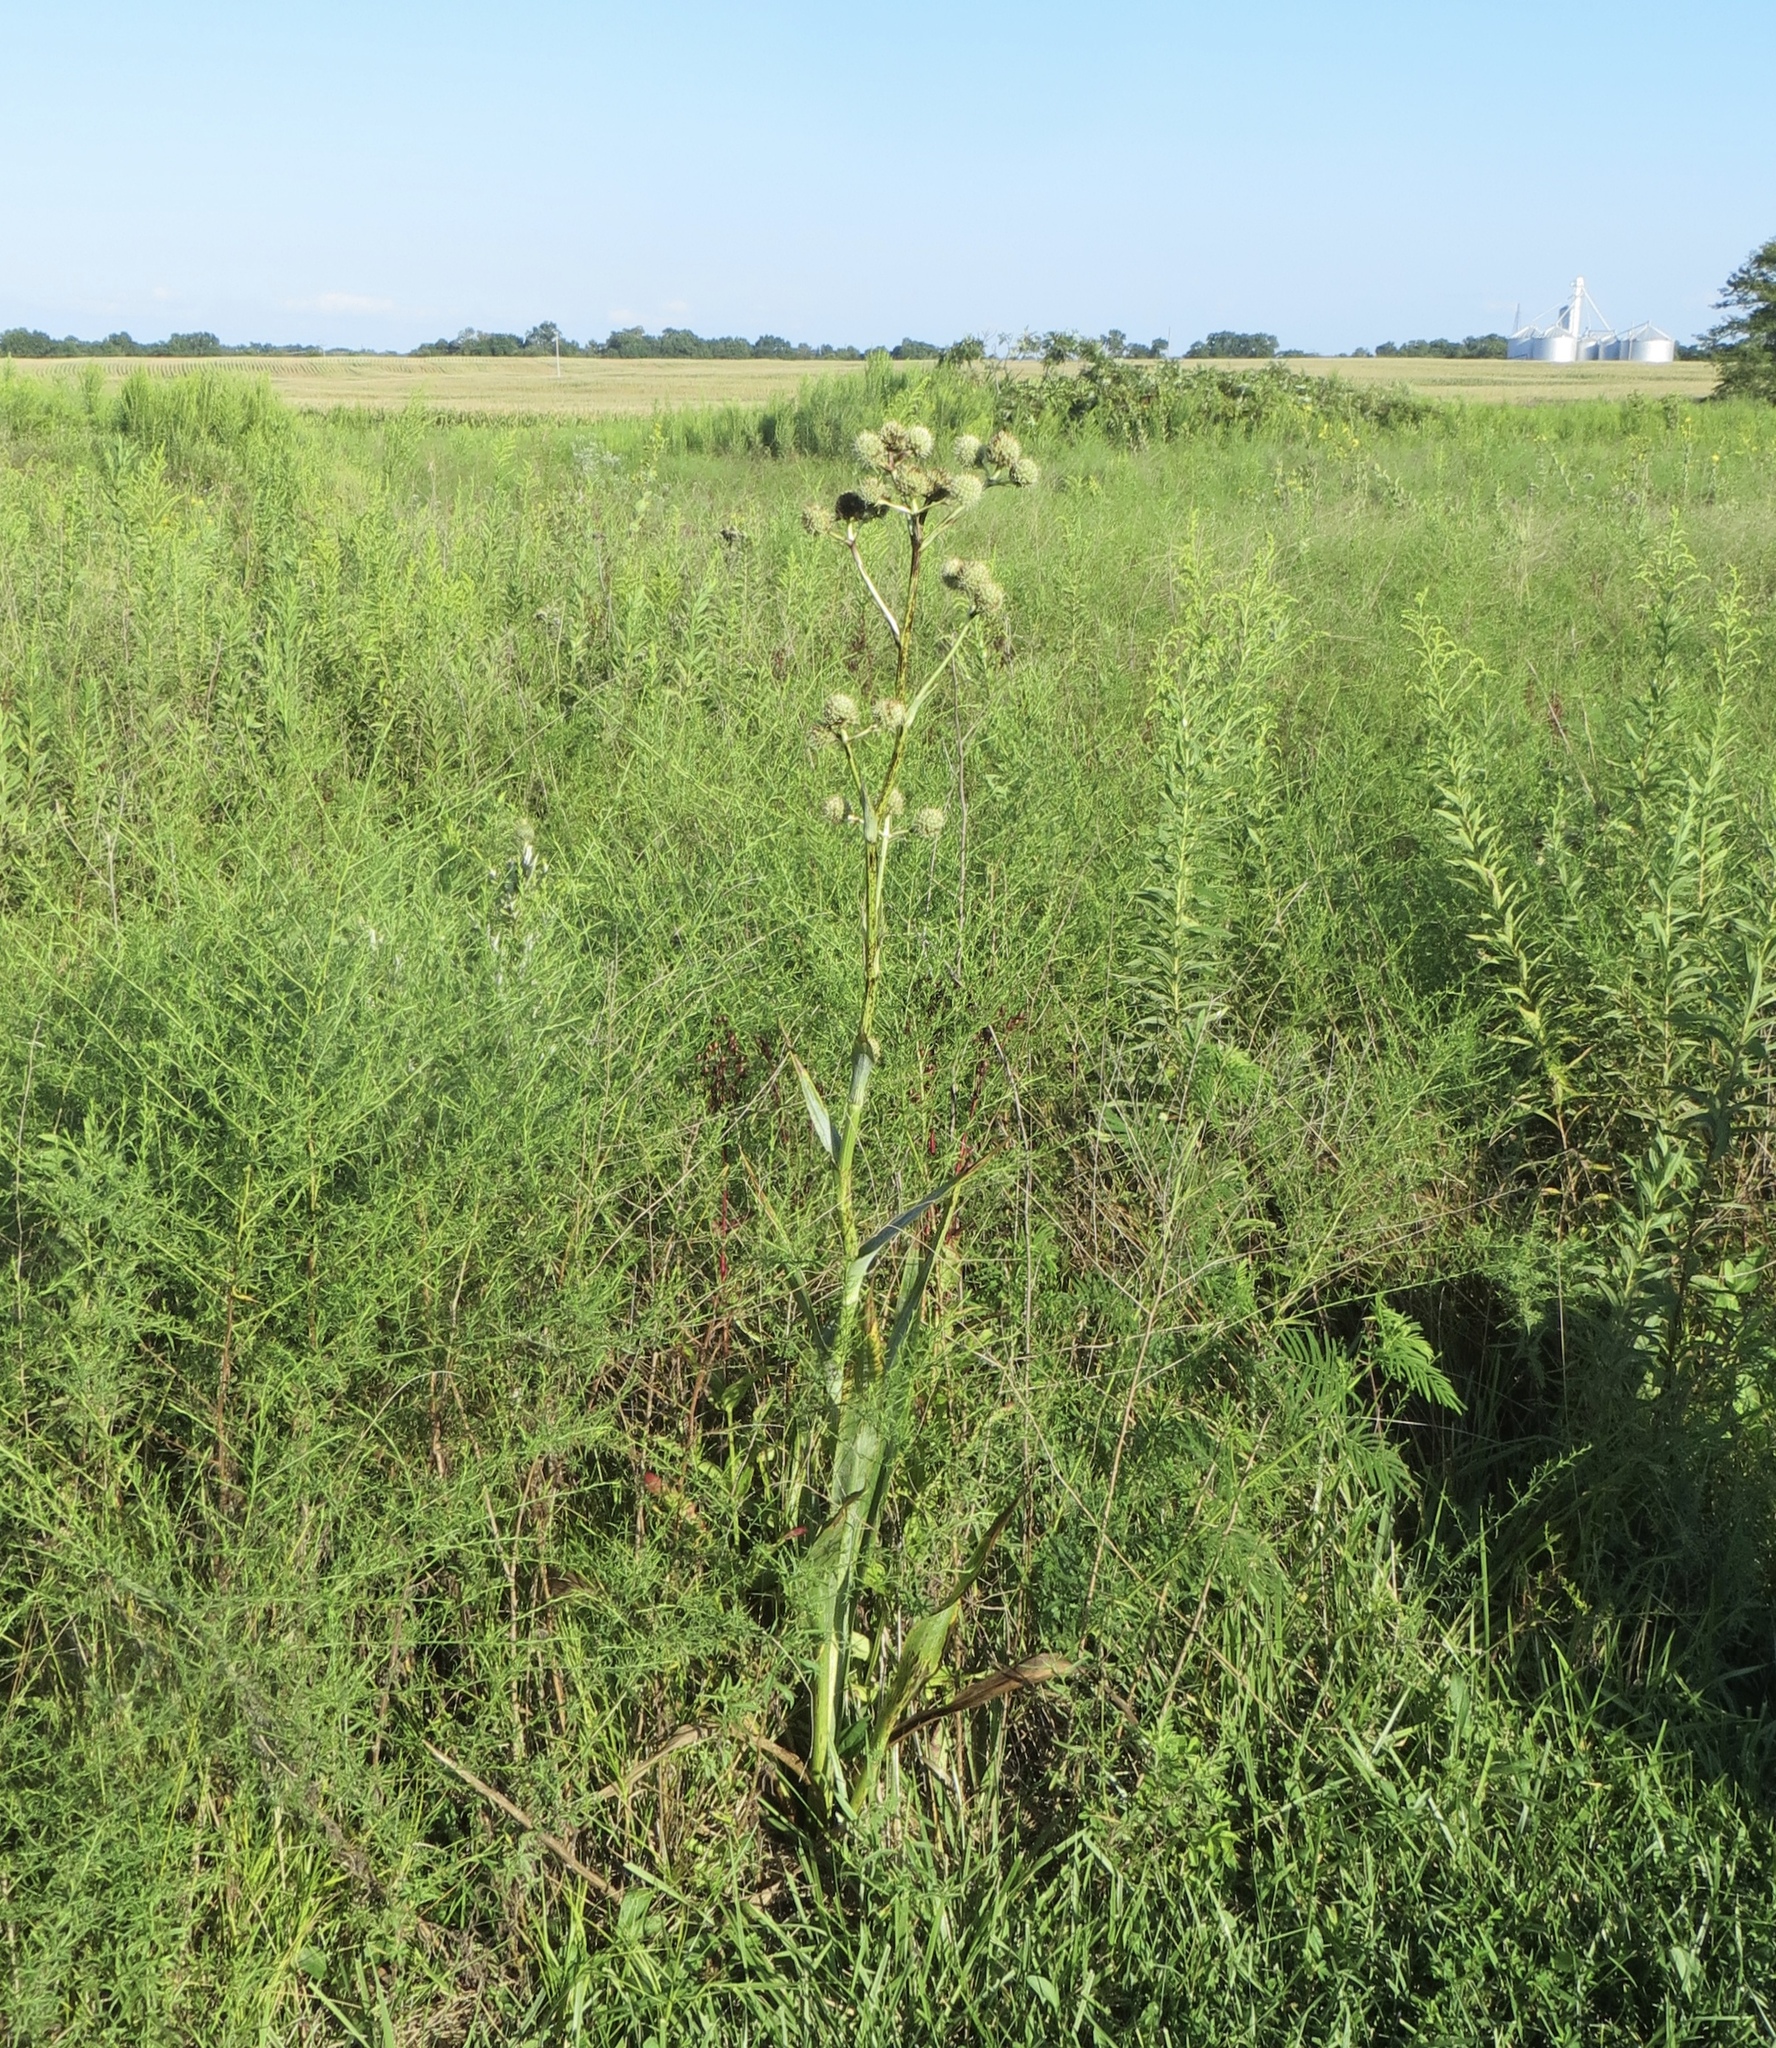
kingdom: Plantae
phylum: Tracheophyta
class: Magnoliopsida
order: Apiales
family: Apiaceae
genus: Eryngium
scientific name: Eryngium yuccifolium
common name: Button eryngo
